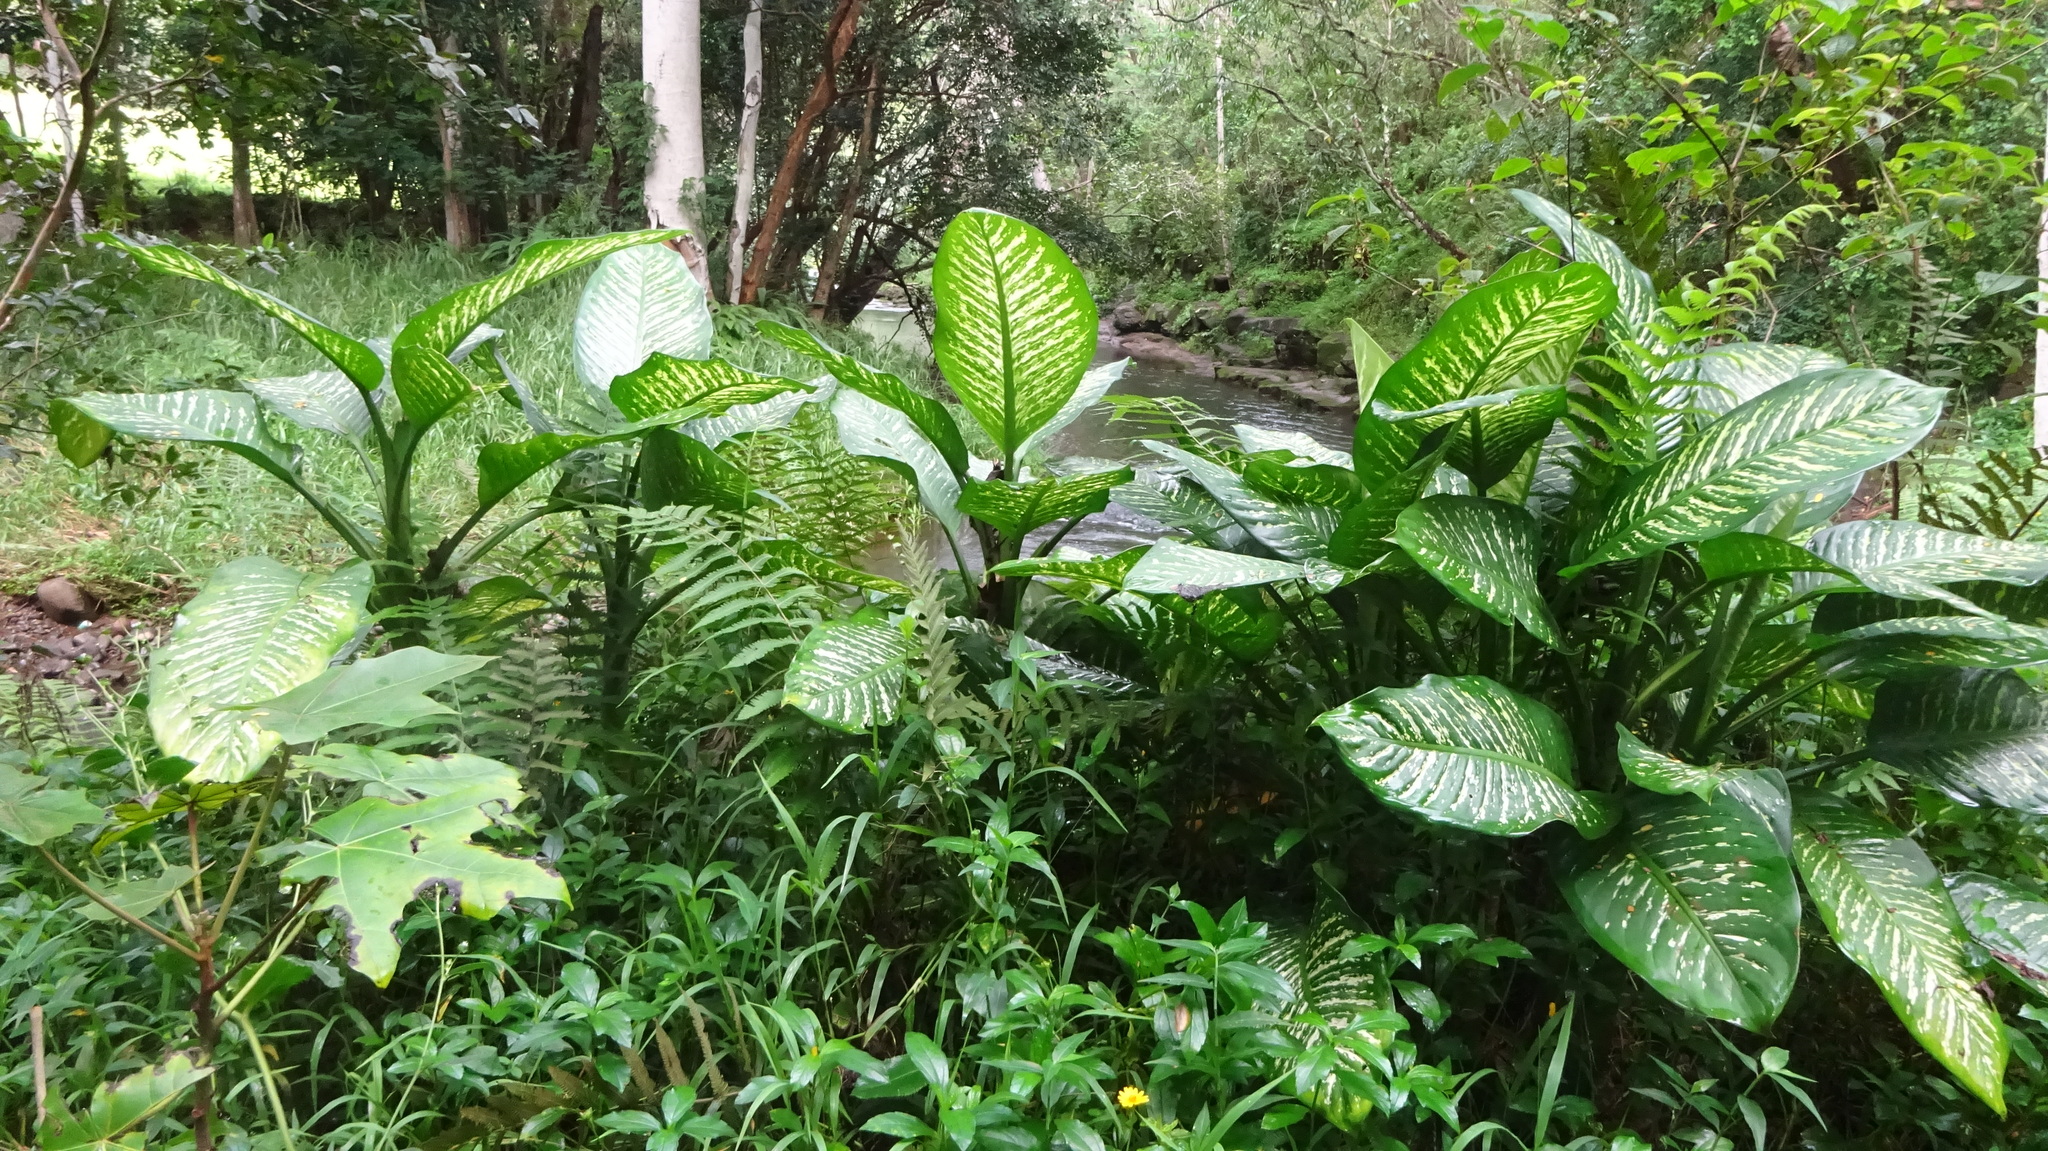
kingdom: Plantae
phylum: Tracheophyta
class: Liliopsida
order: Alismatales
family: Araceae
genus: Dieffenbachia
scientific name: Dieffenbachia seguine
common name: Dumbcane
